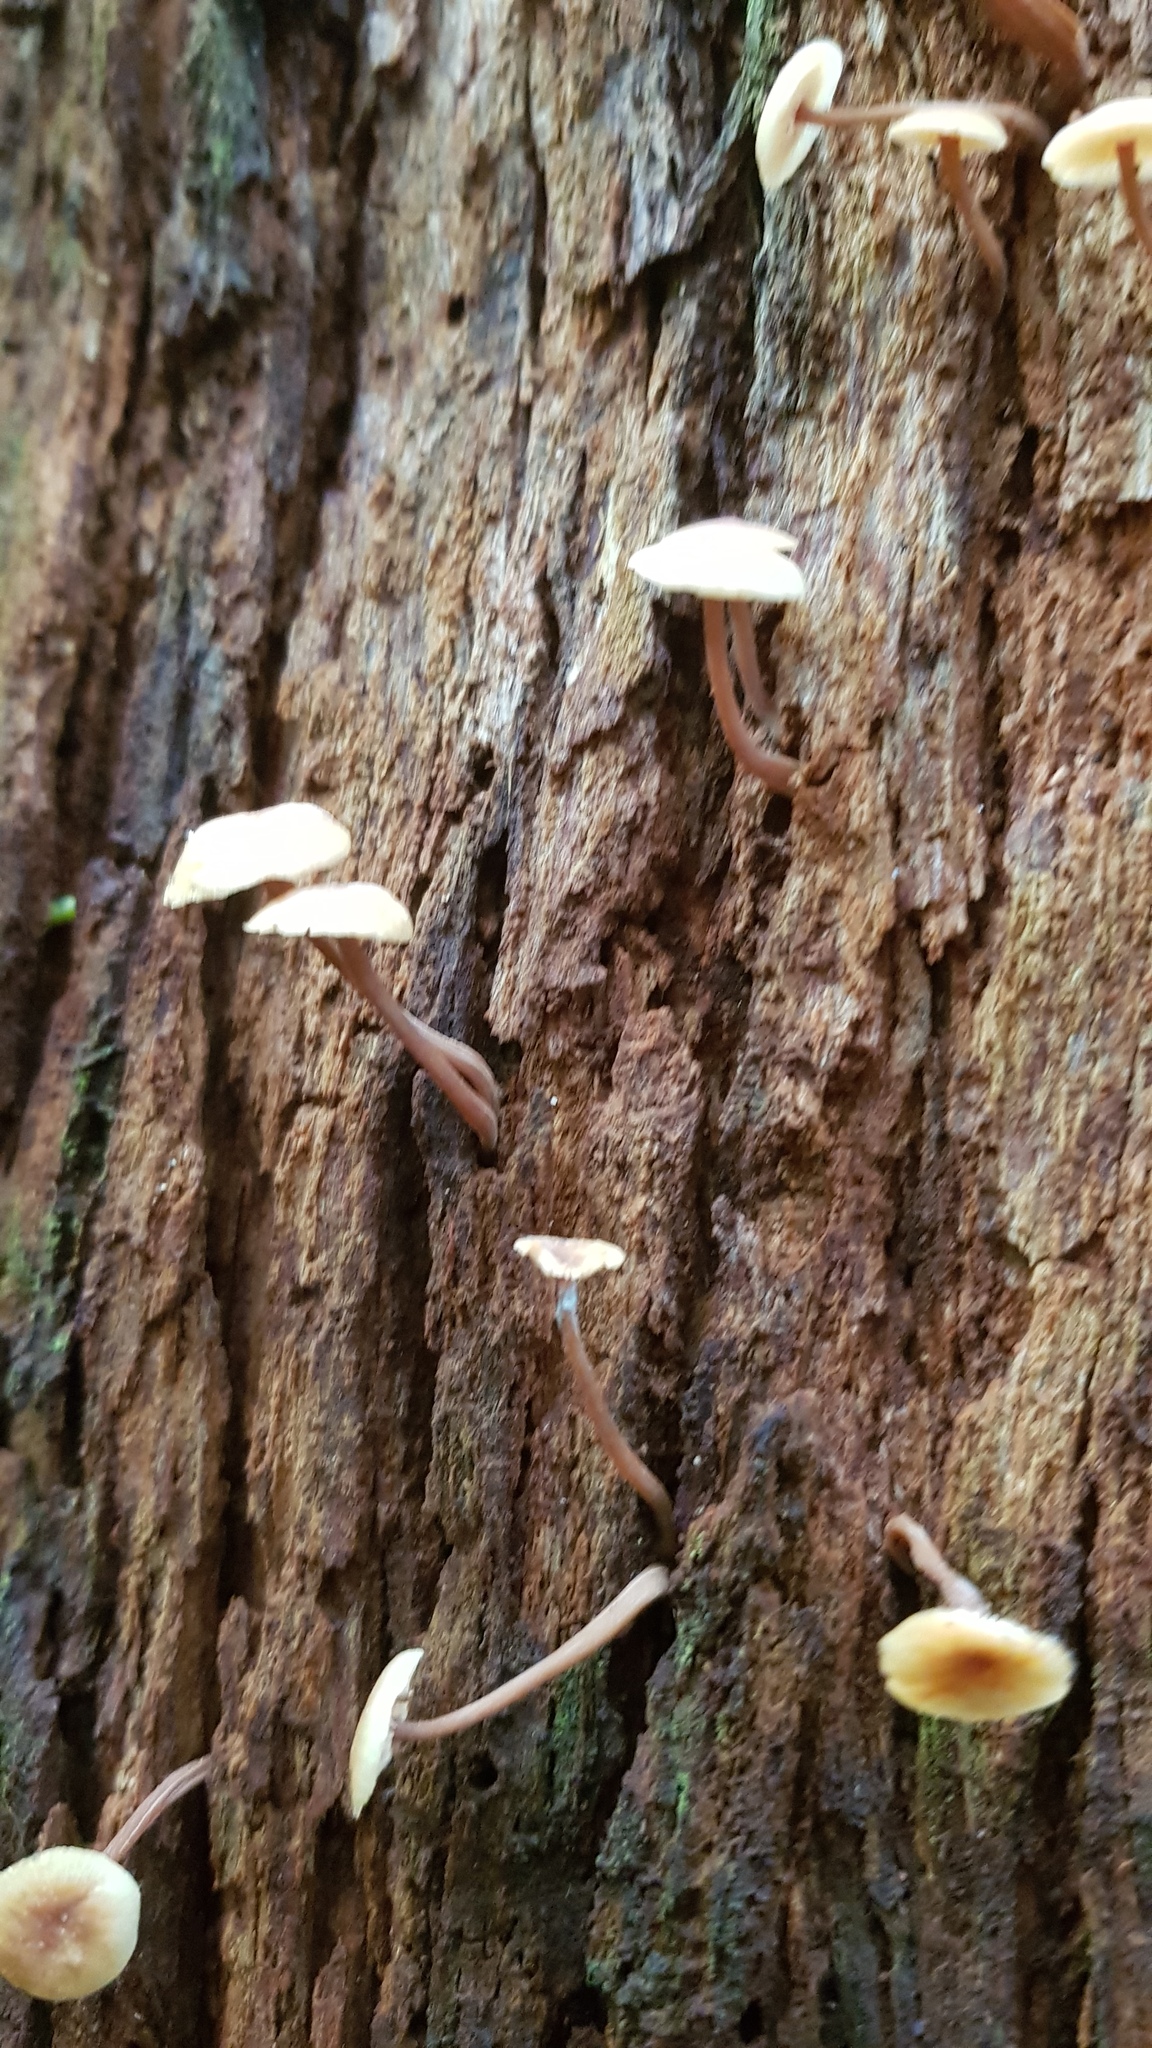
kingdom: Fungi
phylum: Basidiomycota
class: Agaricomycetes
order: Agaricales
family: Omphalotaceae
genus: Rhodocollybia
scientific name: Rhodocollybia
